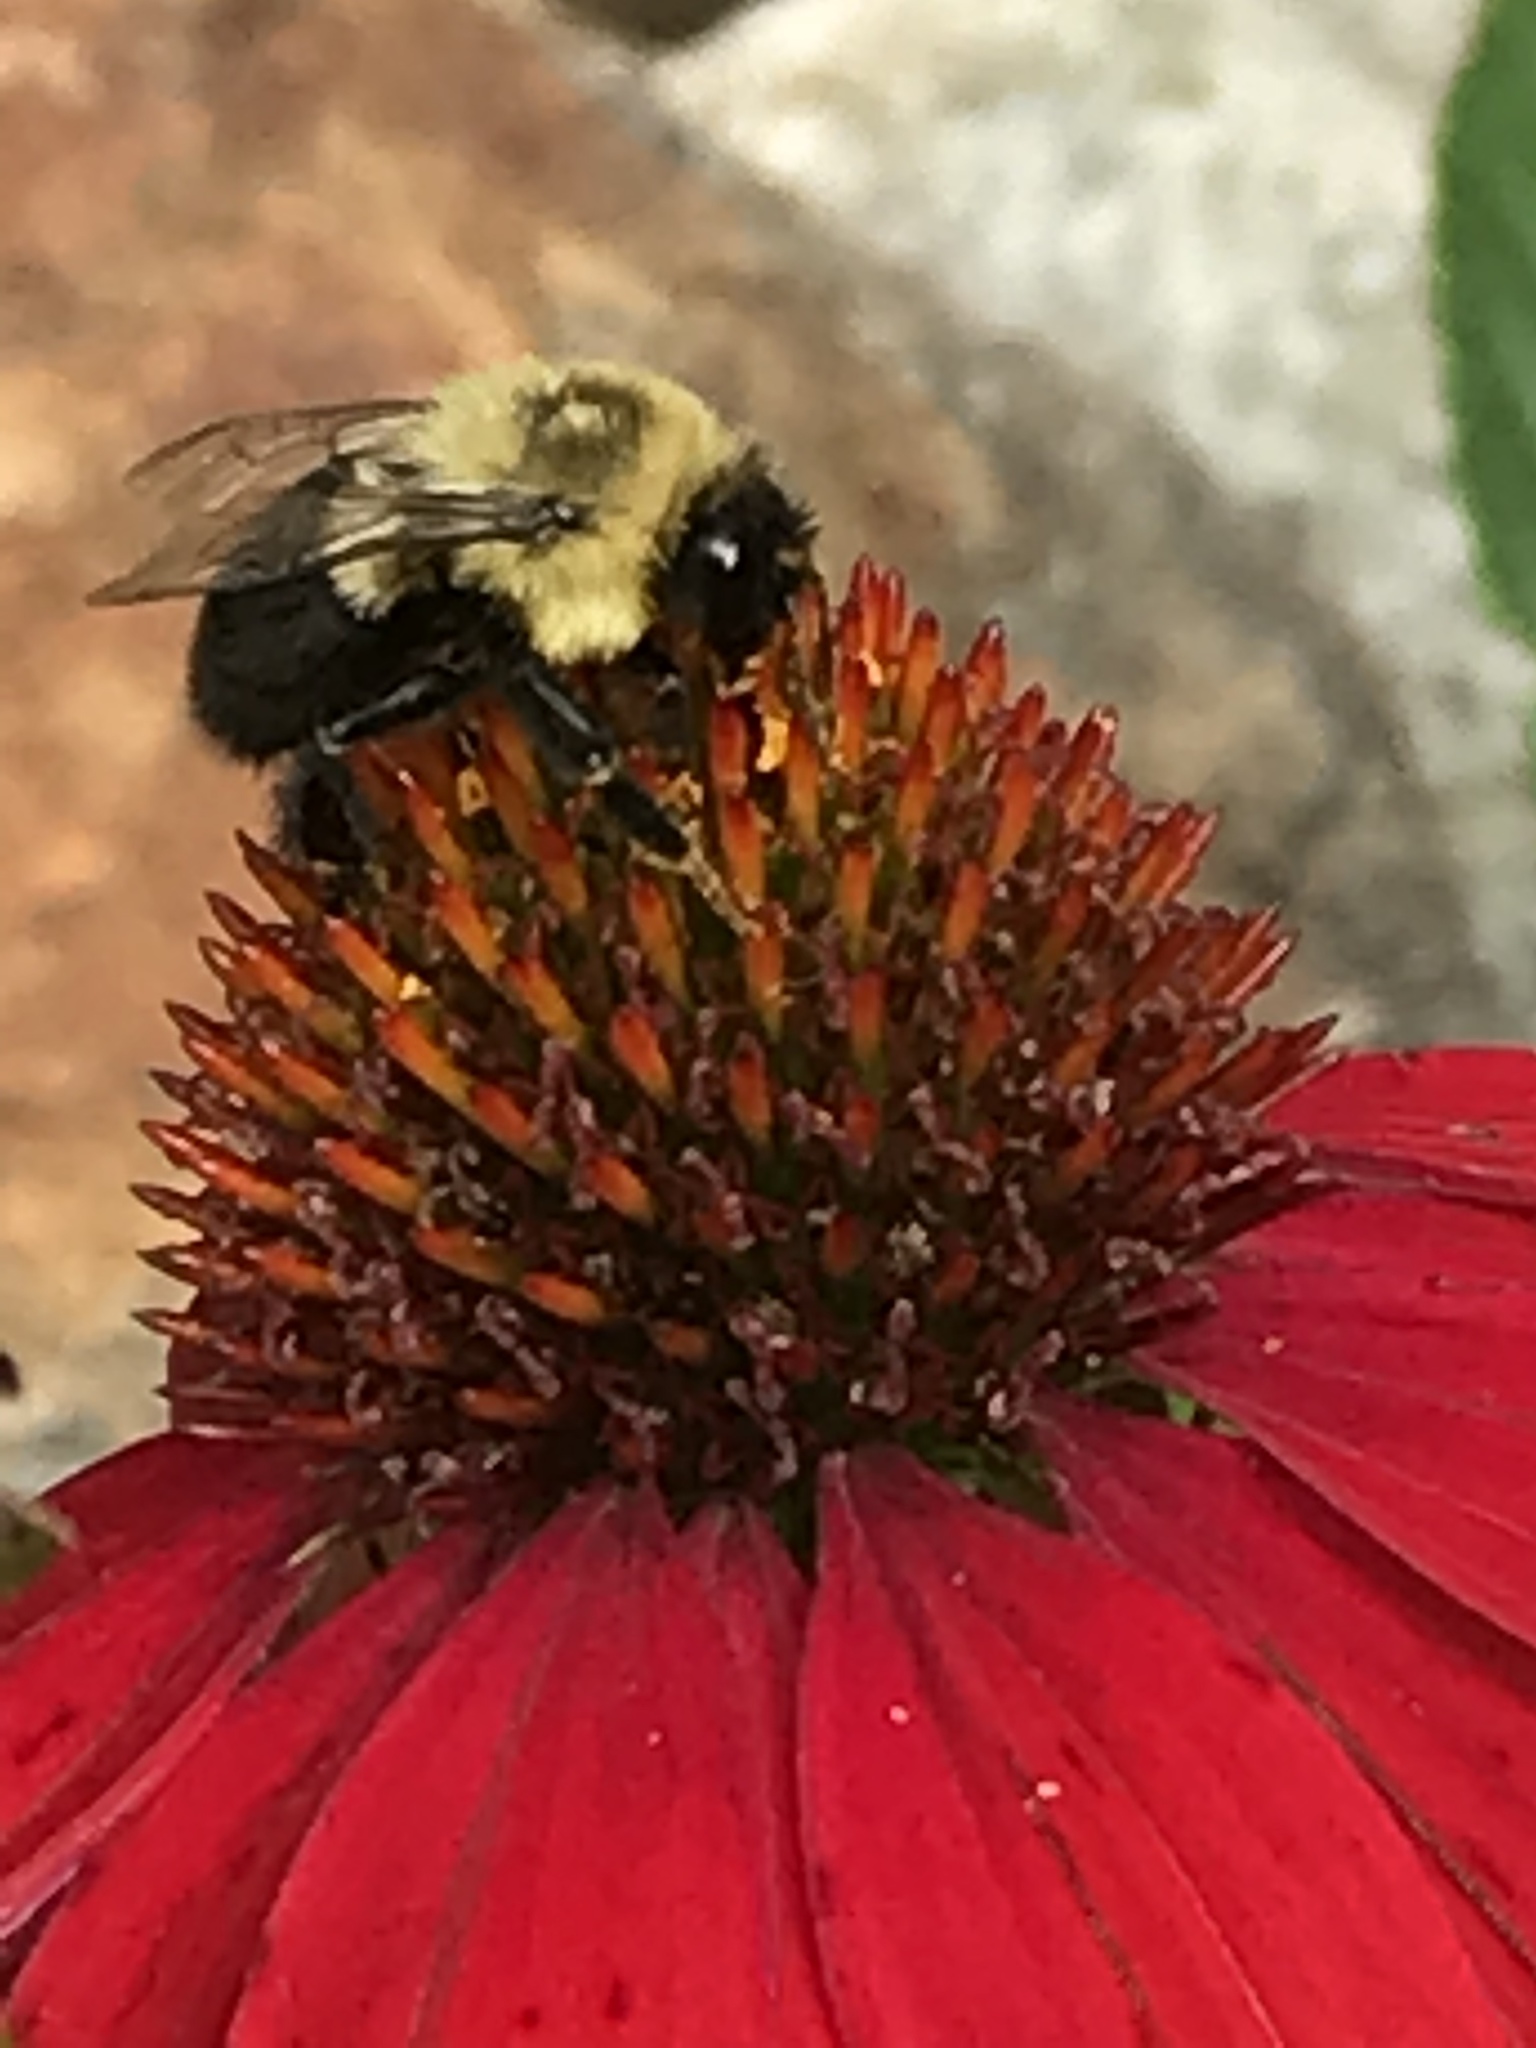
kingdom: Animalia
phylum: Arthropoda
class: Insecta
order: Hymenoptera
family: Apidae
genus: Bombus
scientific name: Bombus impatiens
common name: Common eastern bumble bee
